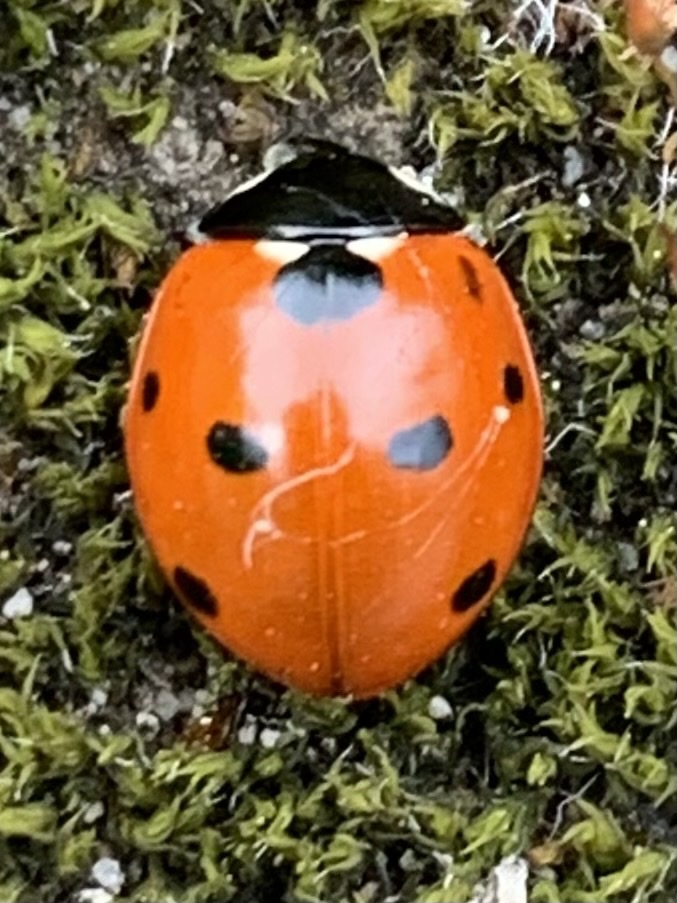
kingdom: Animalia
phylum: Arthropoda
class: Insecta
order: Coleoptera
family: Coccinellidae
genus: Coccinella
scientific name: Coccinella septempunctata
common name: Sevenspotted lady beetle
